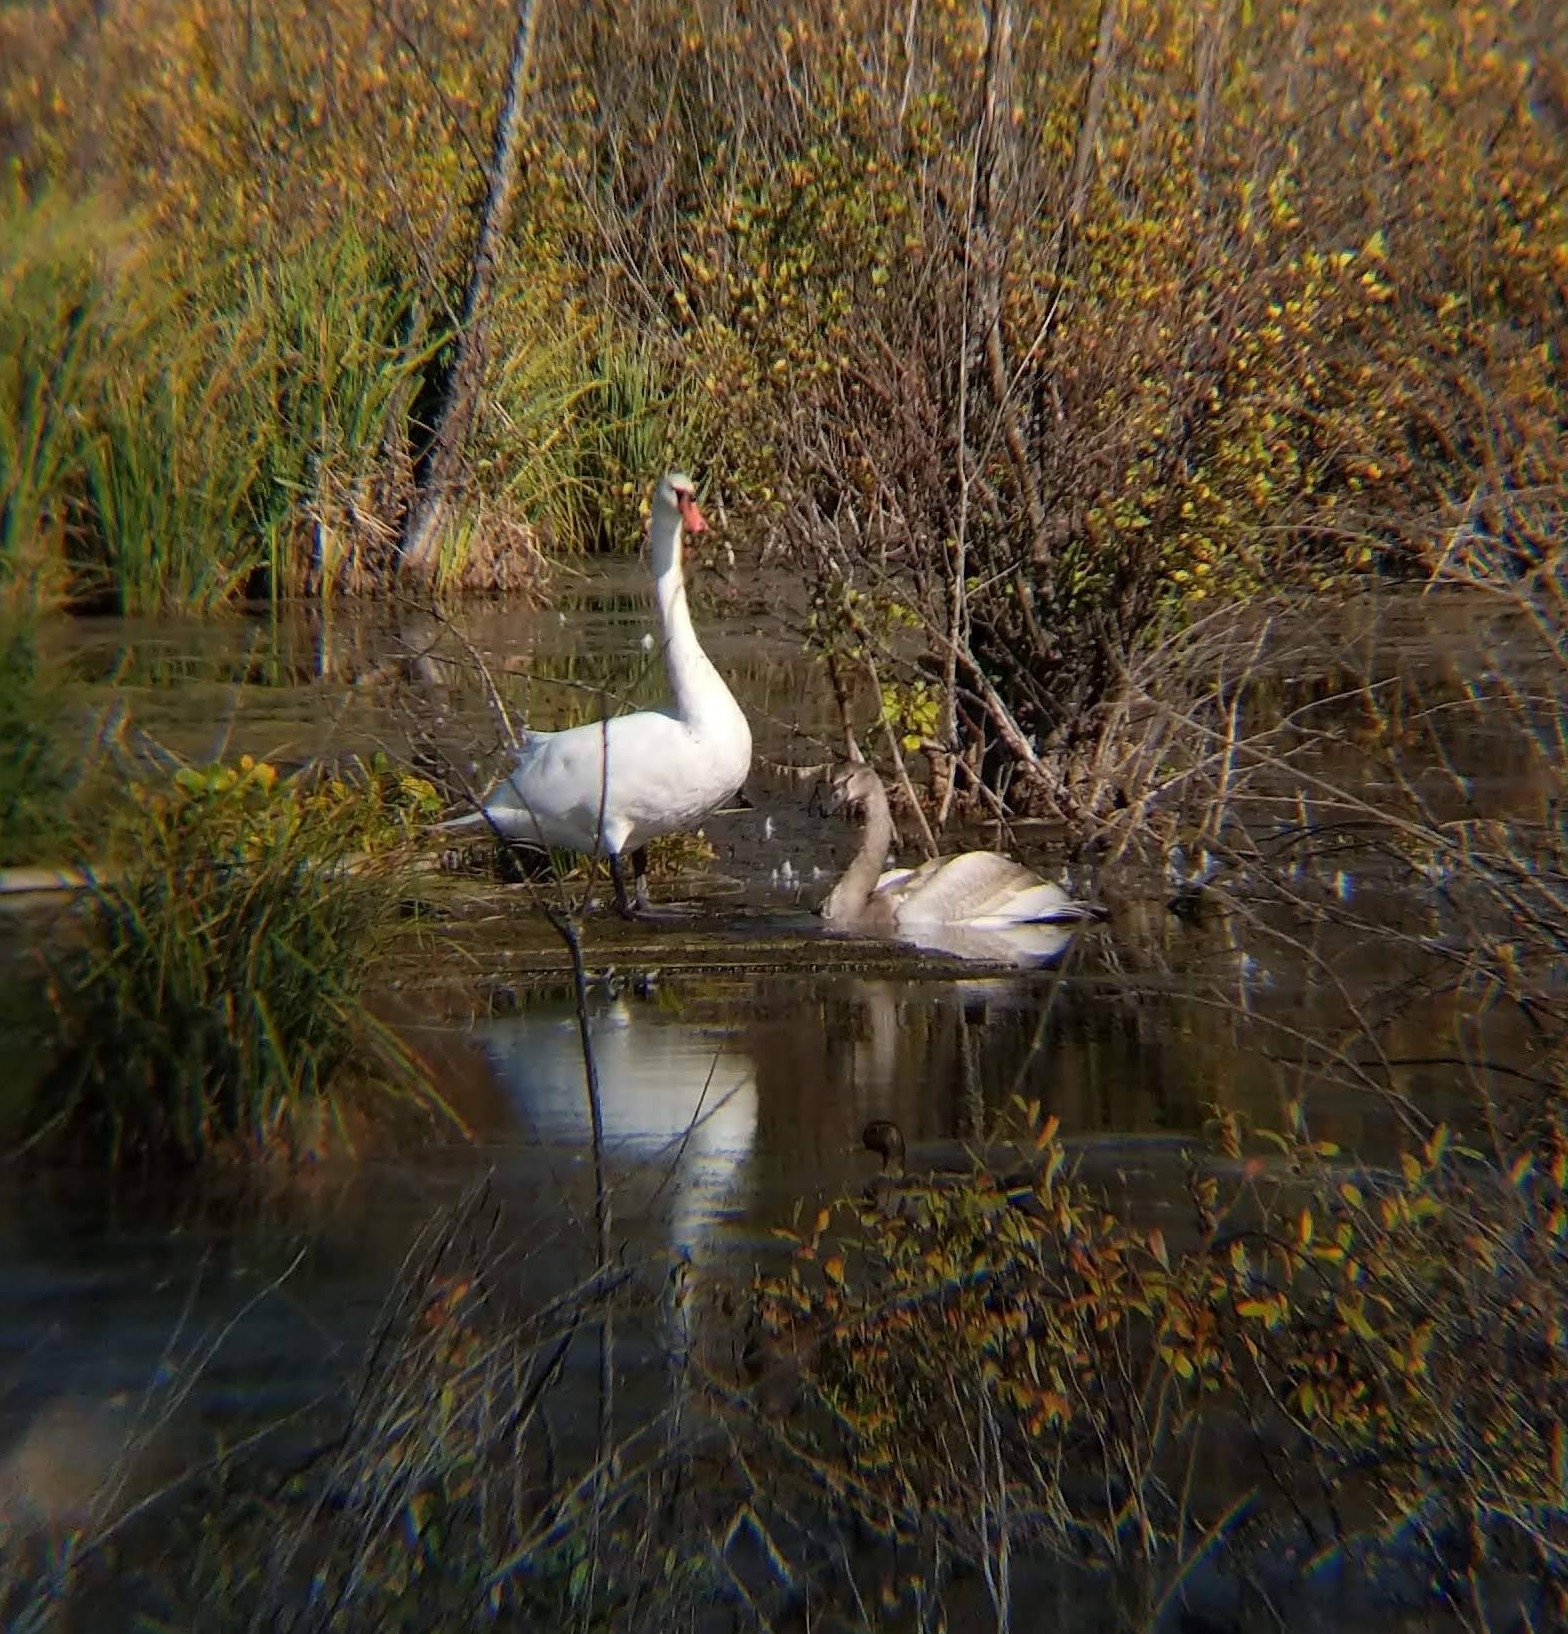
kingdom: Animalia
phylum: Chordata
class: Aves
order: Anseriformes
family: Anatidae
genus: Cygnus
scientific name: Cygnus olor
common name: Mute swan
